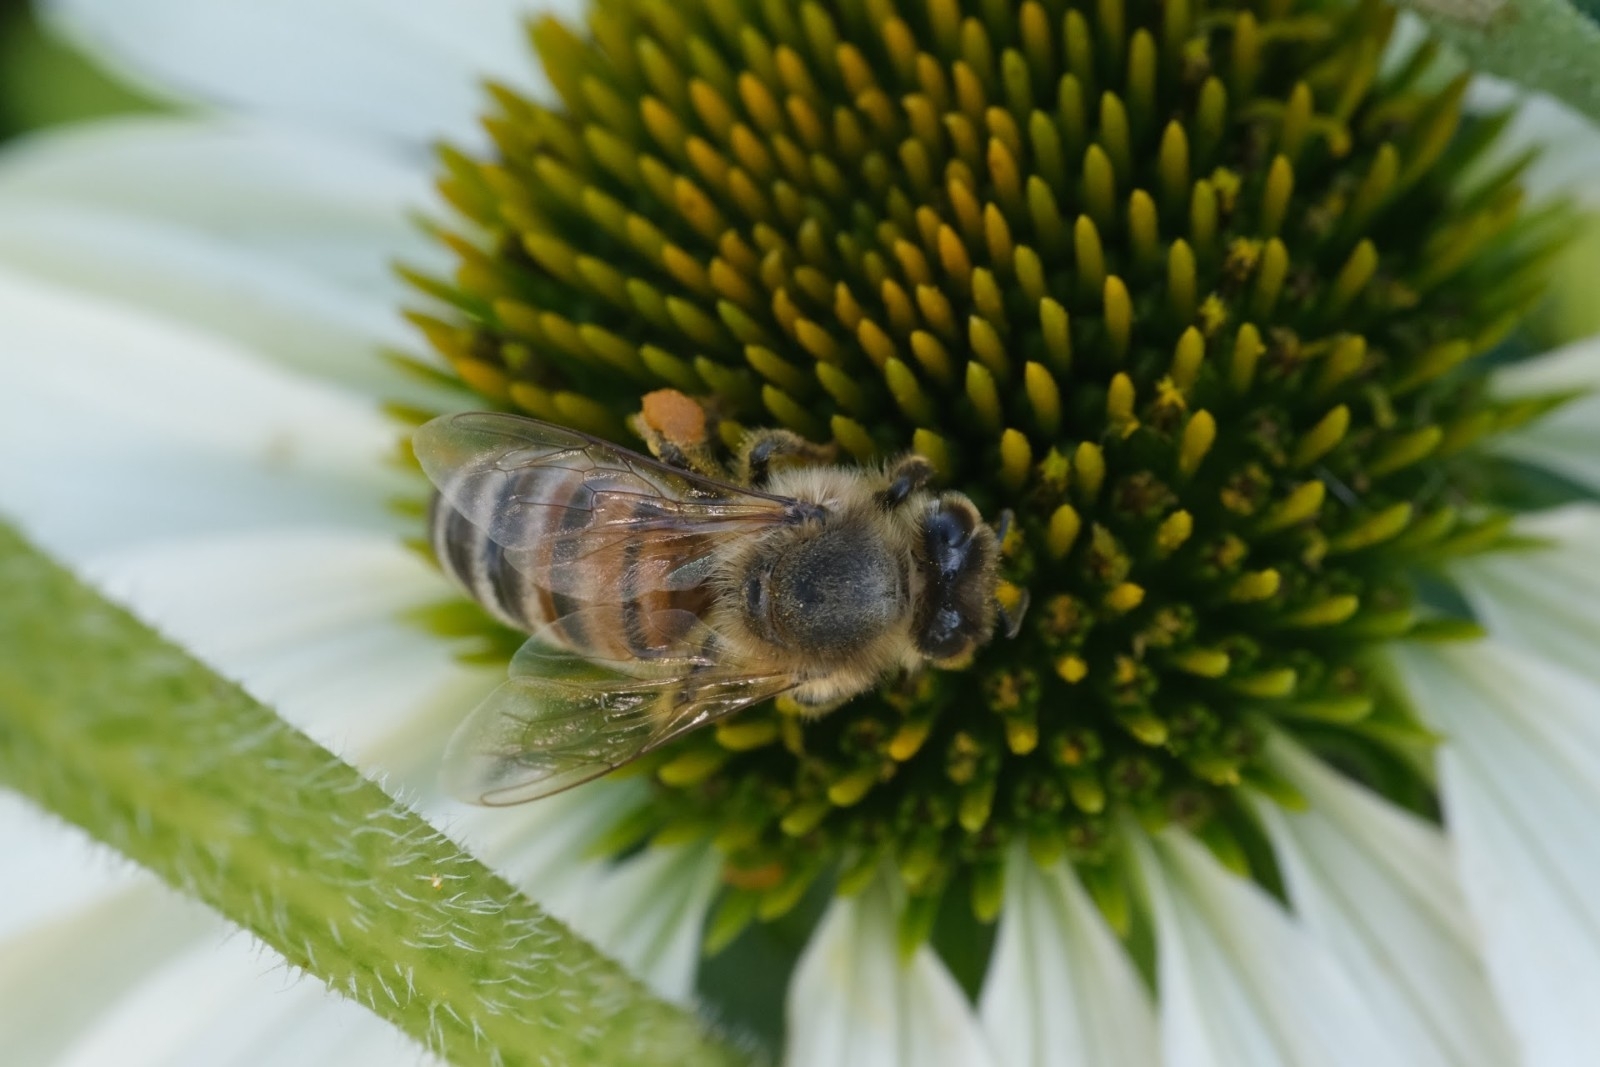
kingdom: Animalia
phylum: Arthropoda
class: Insecta
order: Hymenoptera
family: Apidae
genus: Apis
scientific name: Apis mellifera
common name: Honey bee
